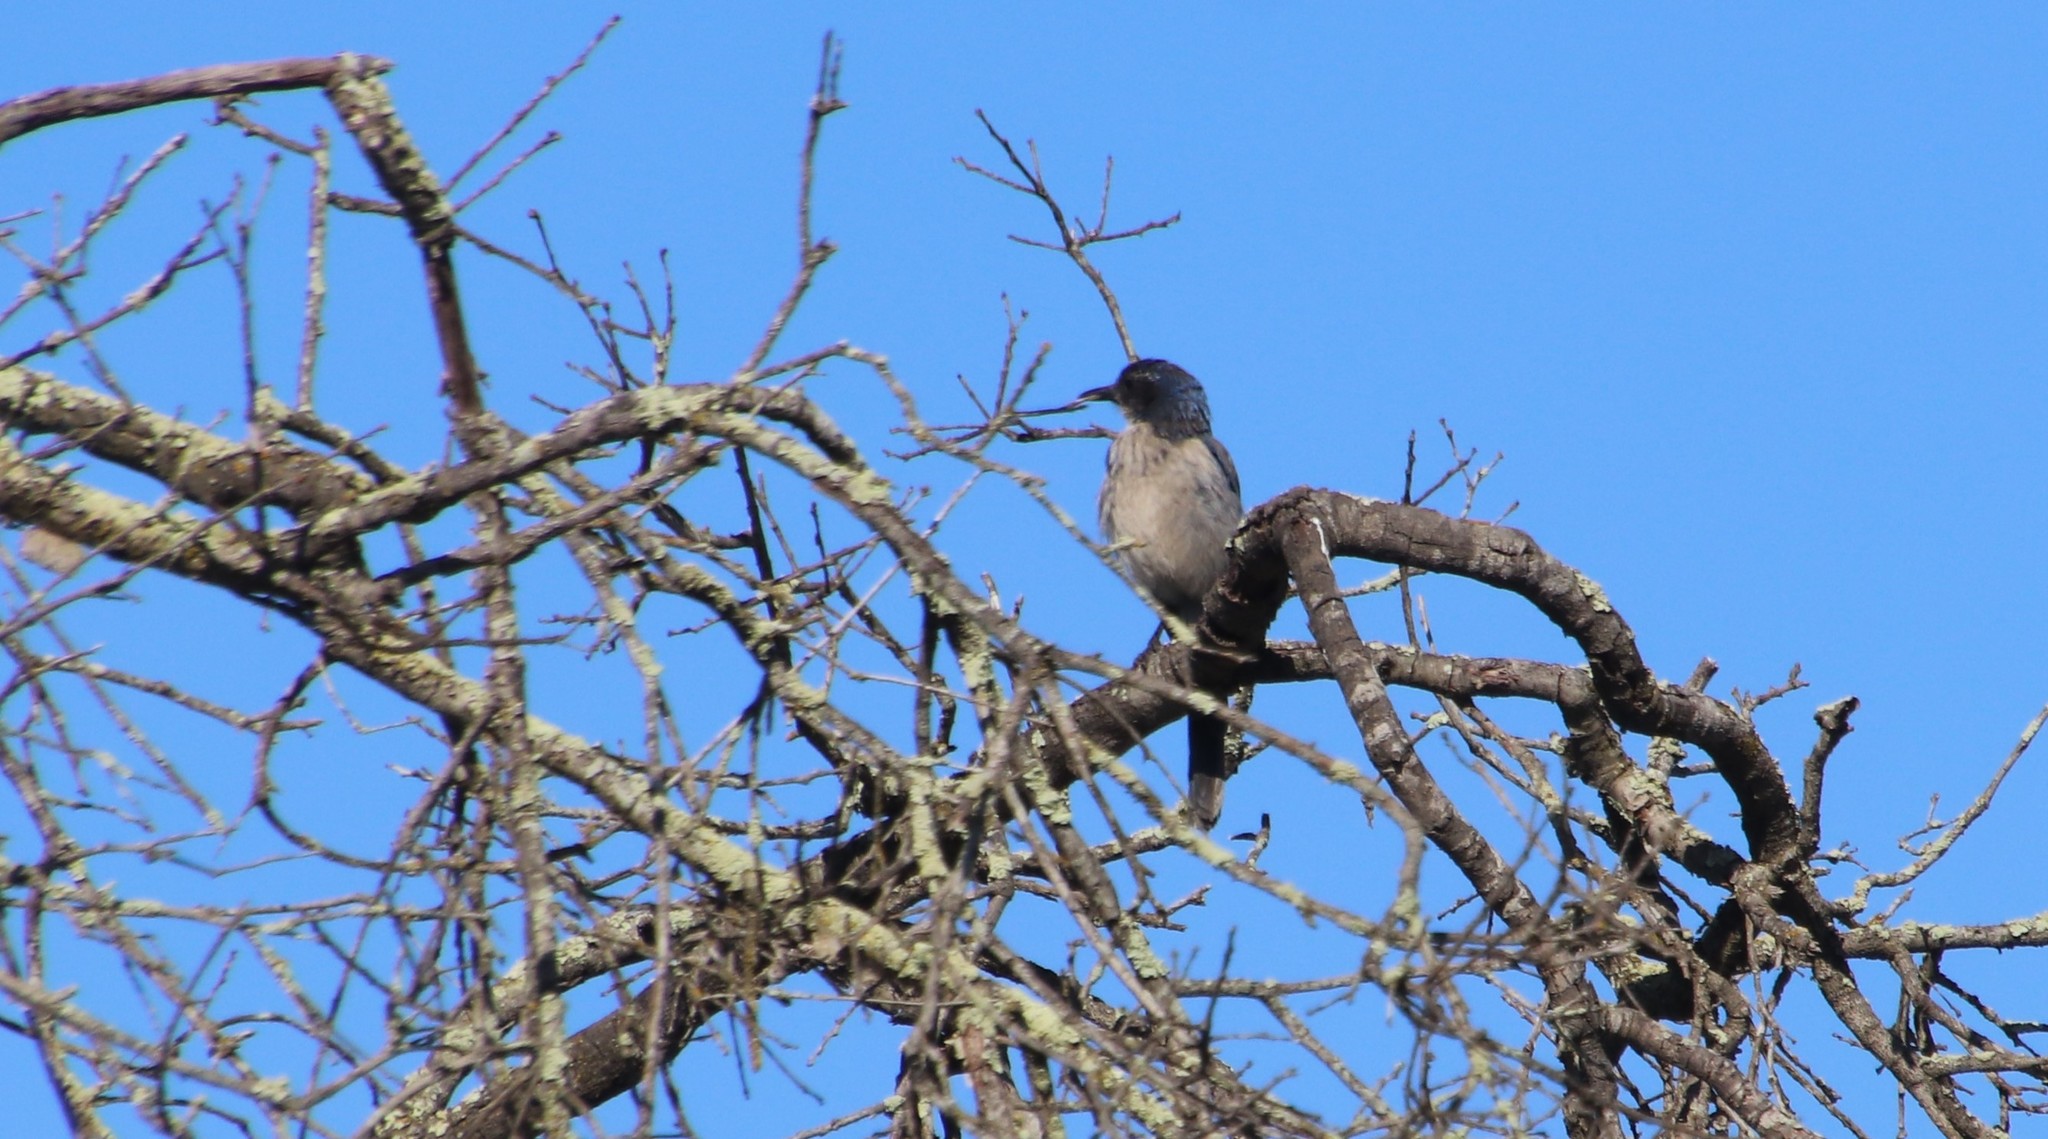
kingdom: Animalia
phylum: Chordata
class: Aves
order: Passeriformes
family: Corvidae
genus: Aphelocoma
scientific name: Aphelocoma californica
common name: California scrub-jay
